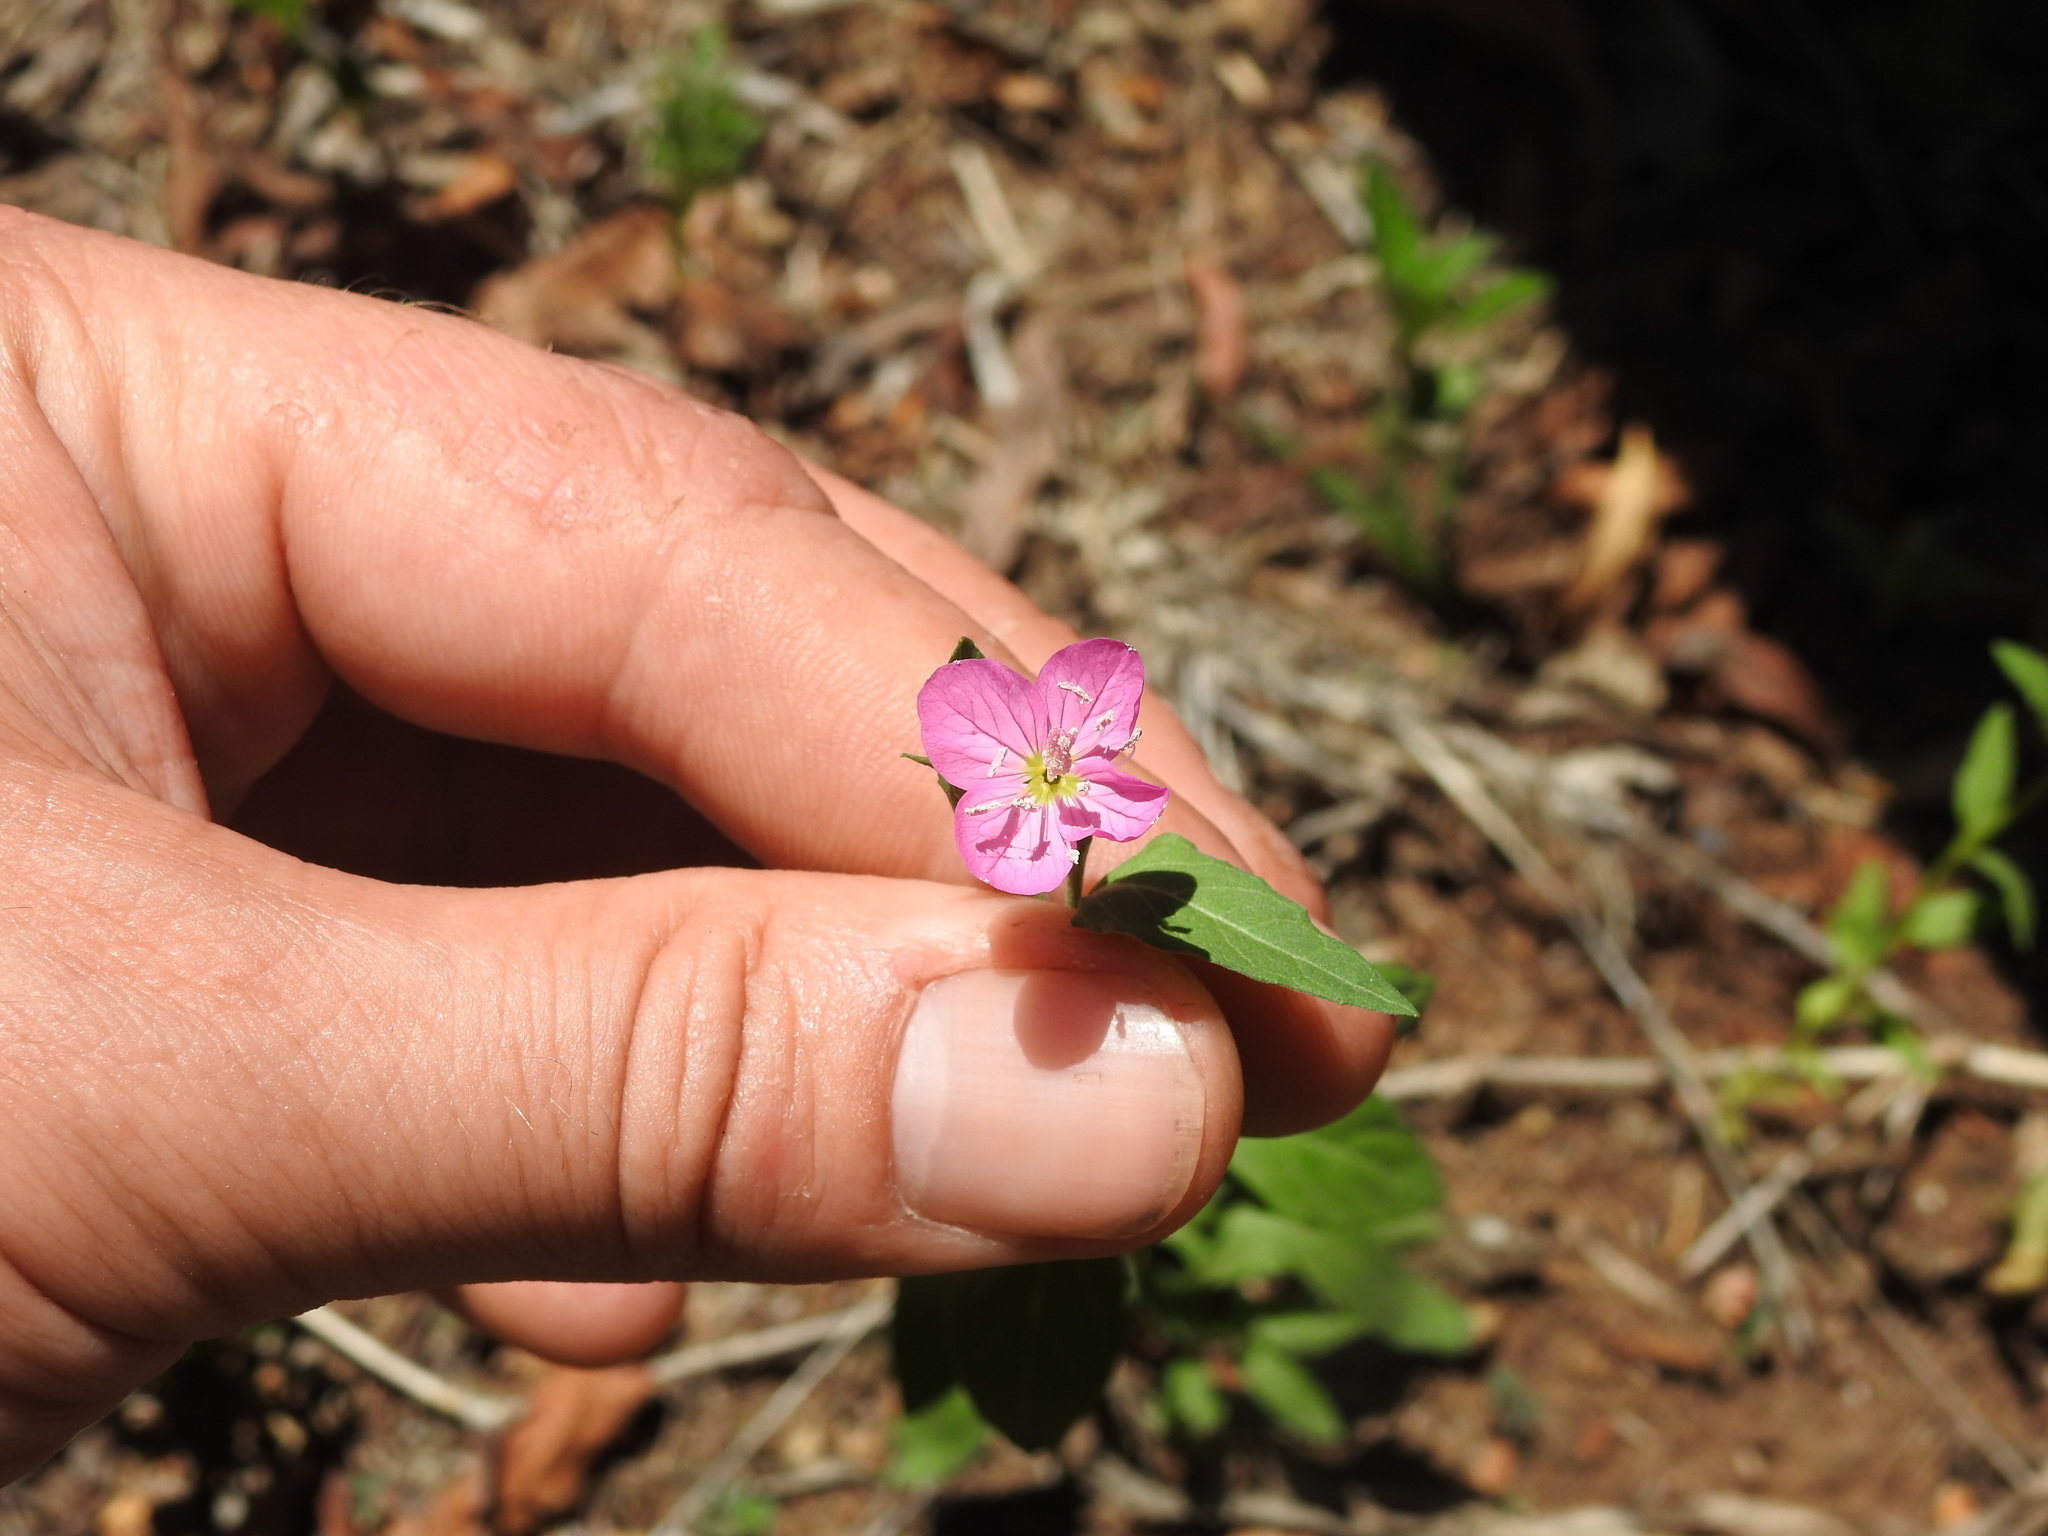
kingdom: Plantae
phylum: Tracheophyta
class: Magnoliopsida
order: Myrtales
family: Onagraceae
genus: Oenothera
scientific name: Oenothera rosea
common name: Rosy evening-primrose
